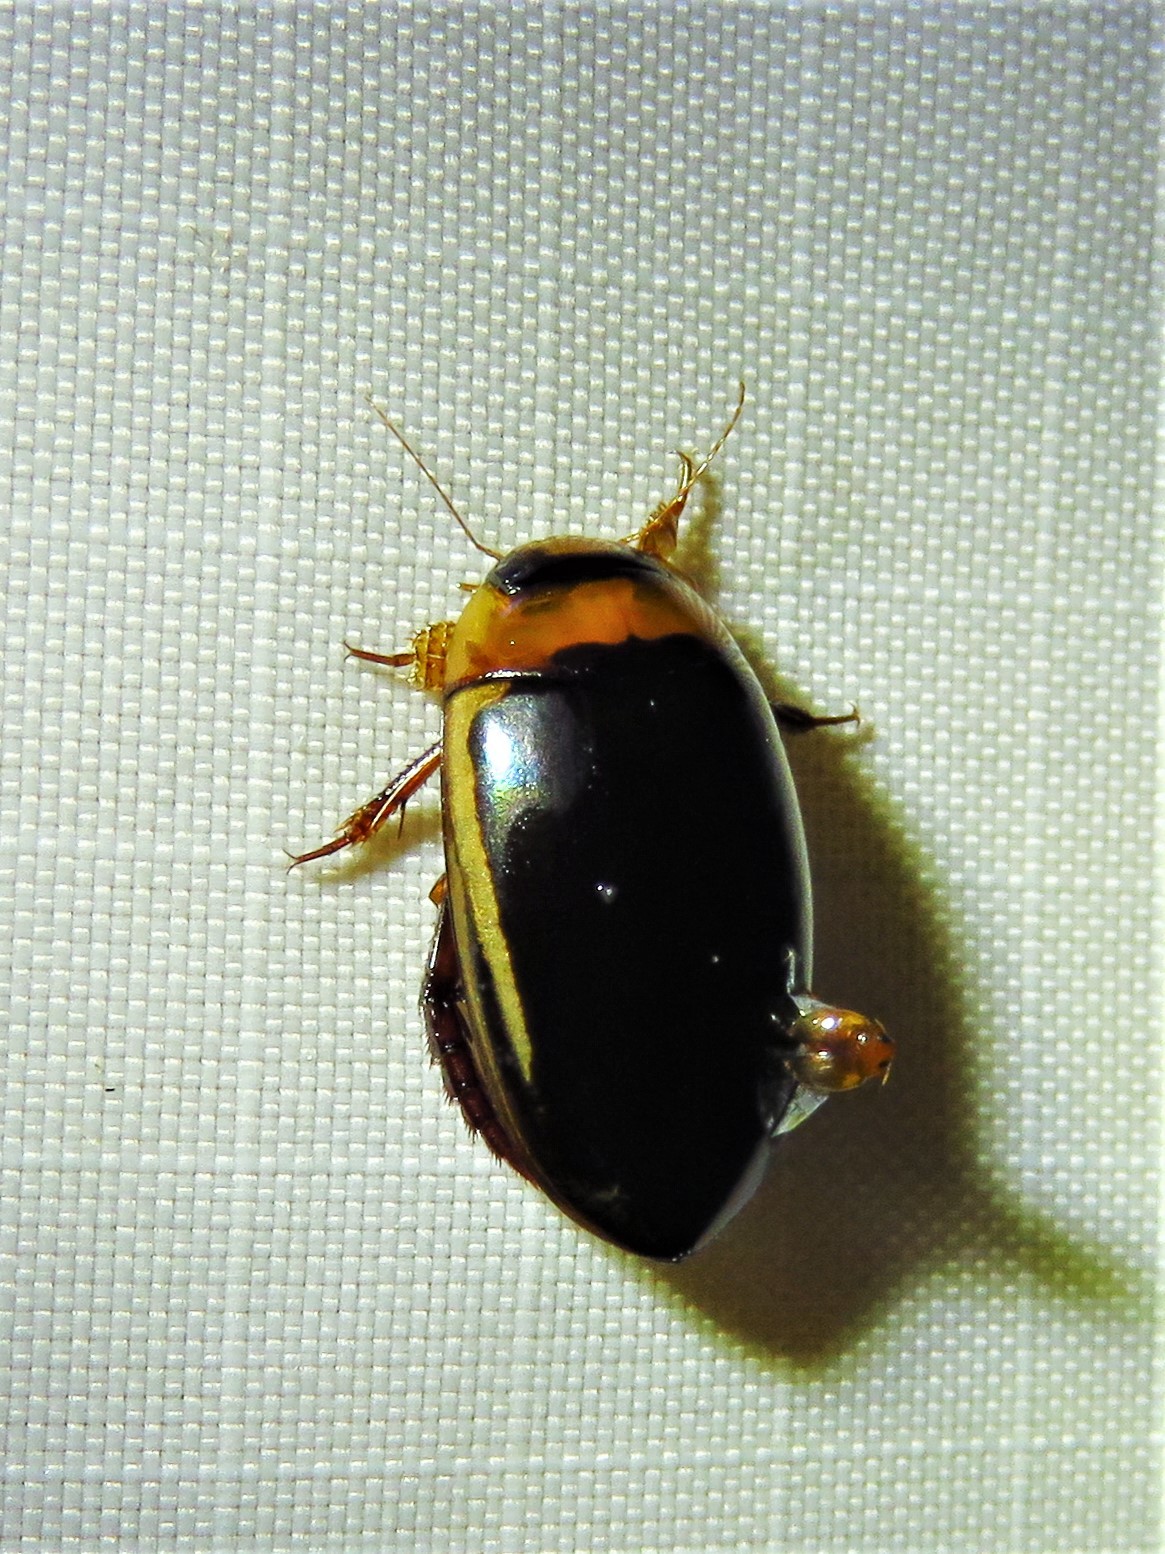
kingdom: Animalia
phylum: Arthropoda
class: Insecta
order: Coleoptera
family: Dytiscidae
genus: Hydaticus
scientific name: Hydaticus bimarginatus
